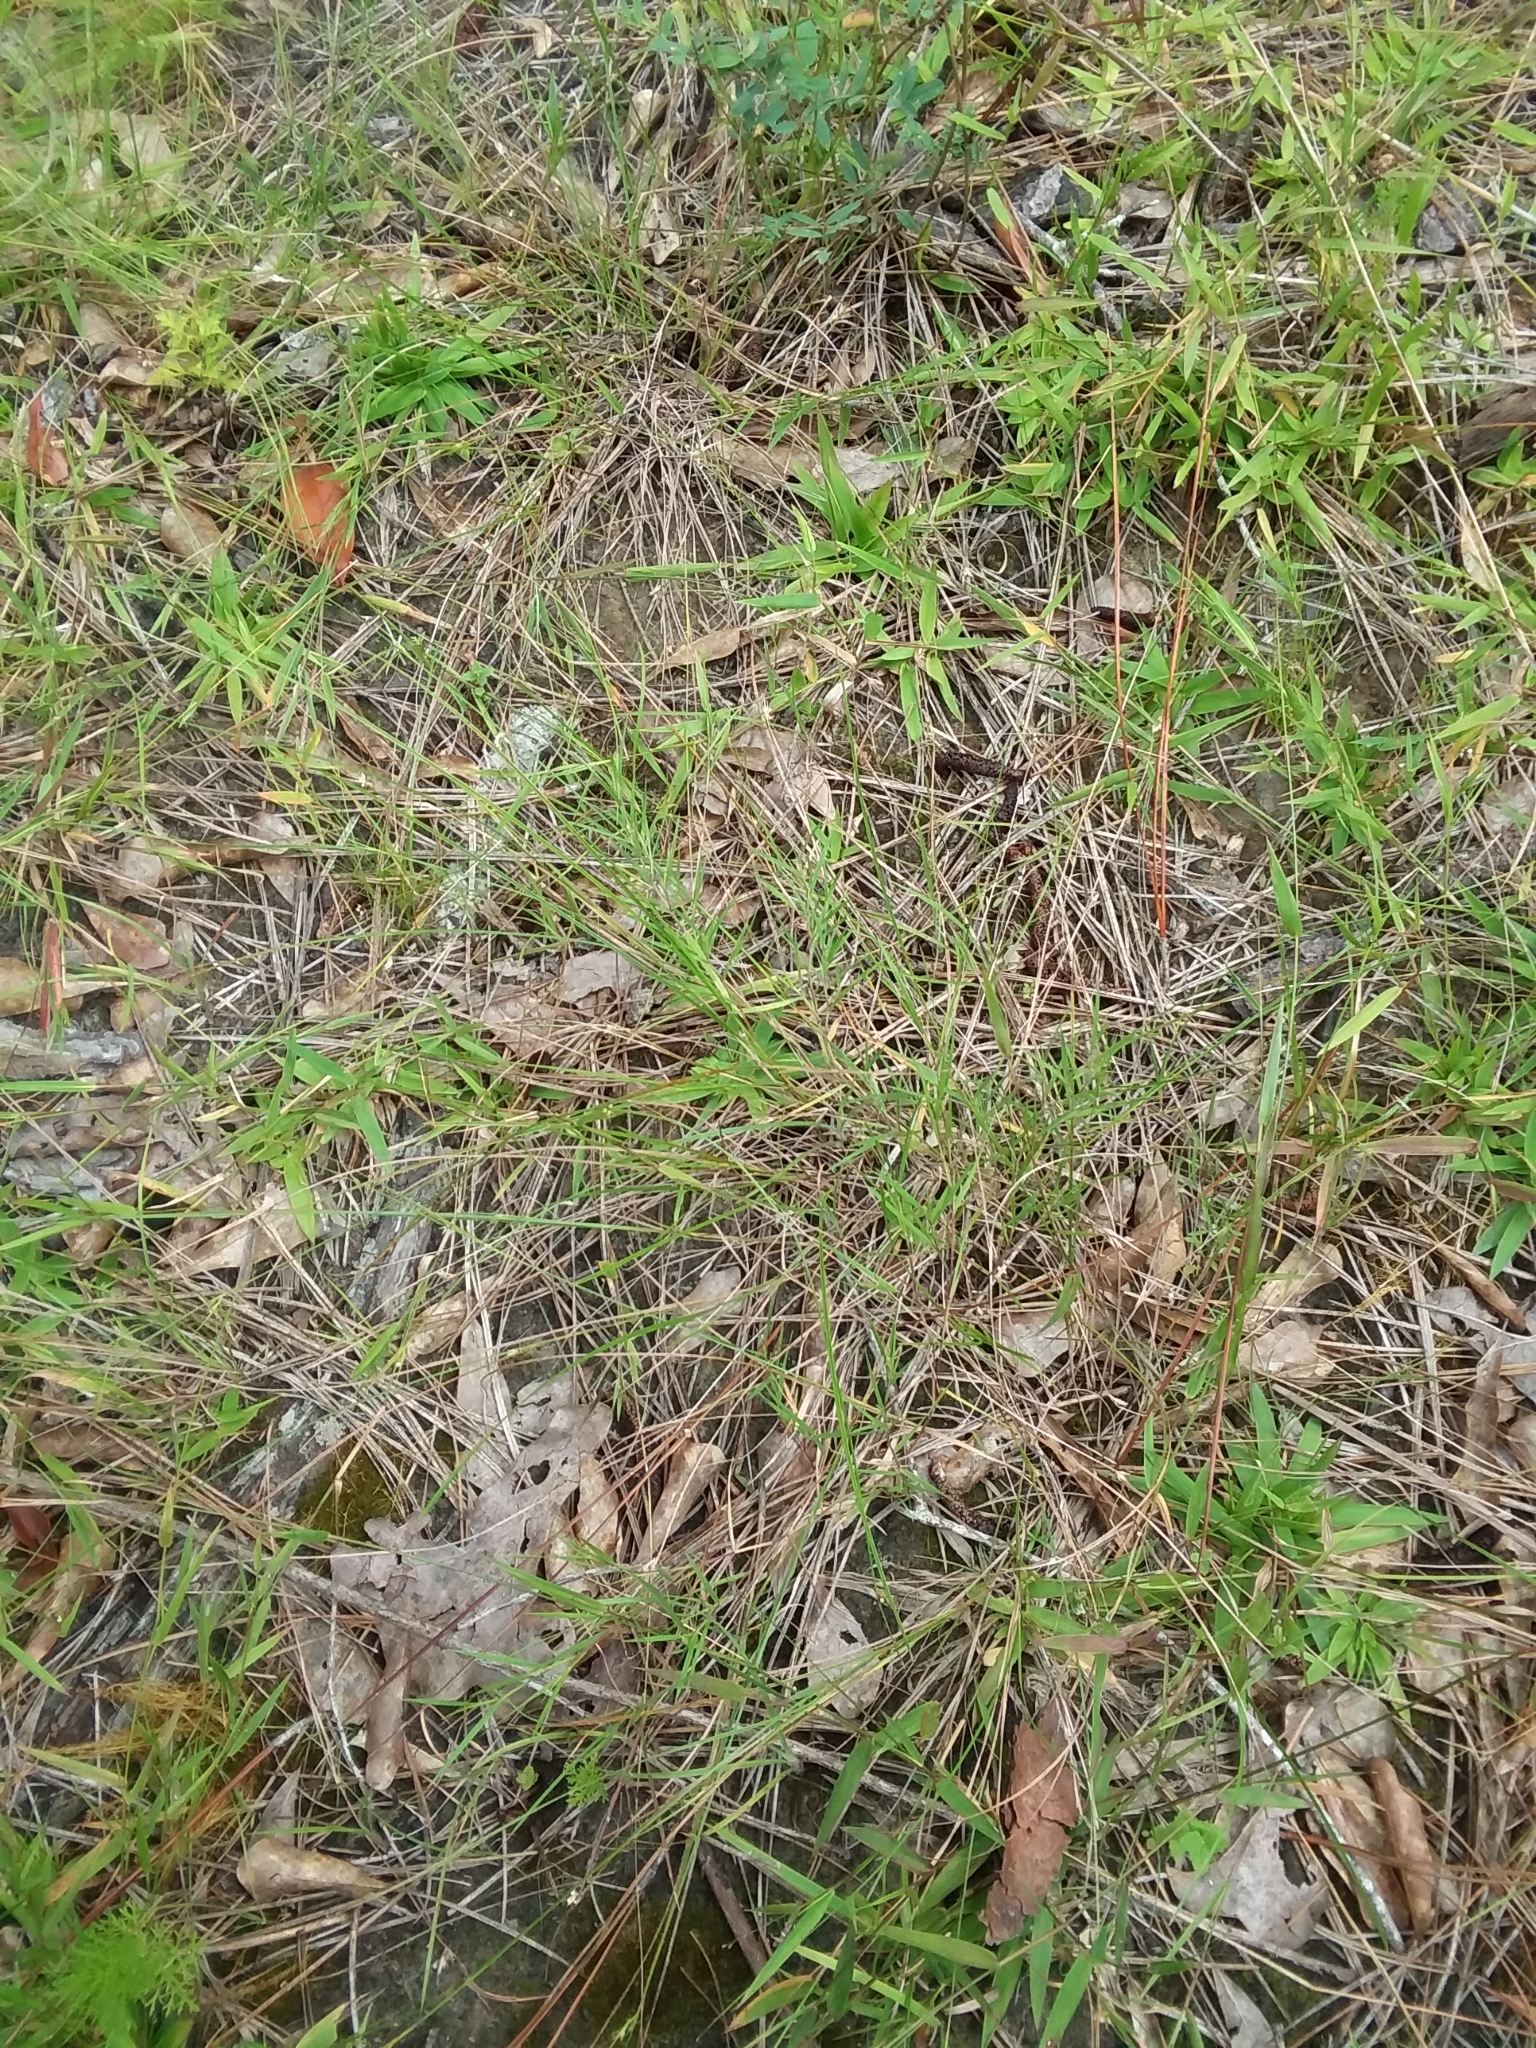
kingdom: Plantae
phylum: Tracheophyta
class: Liliopsida
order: Poales
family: Poaceae
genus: Dichanthelium
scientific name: Dichanthelium aciculare
